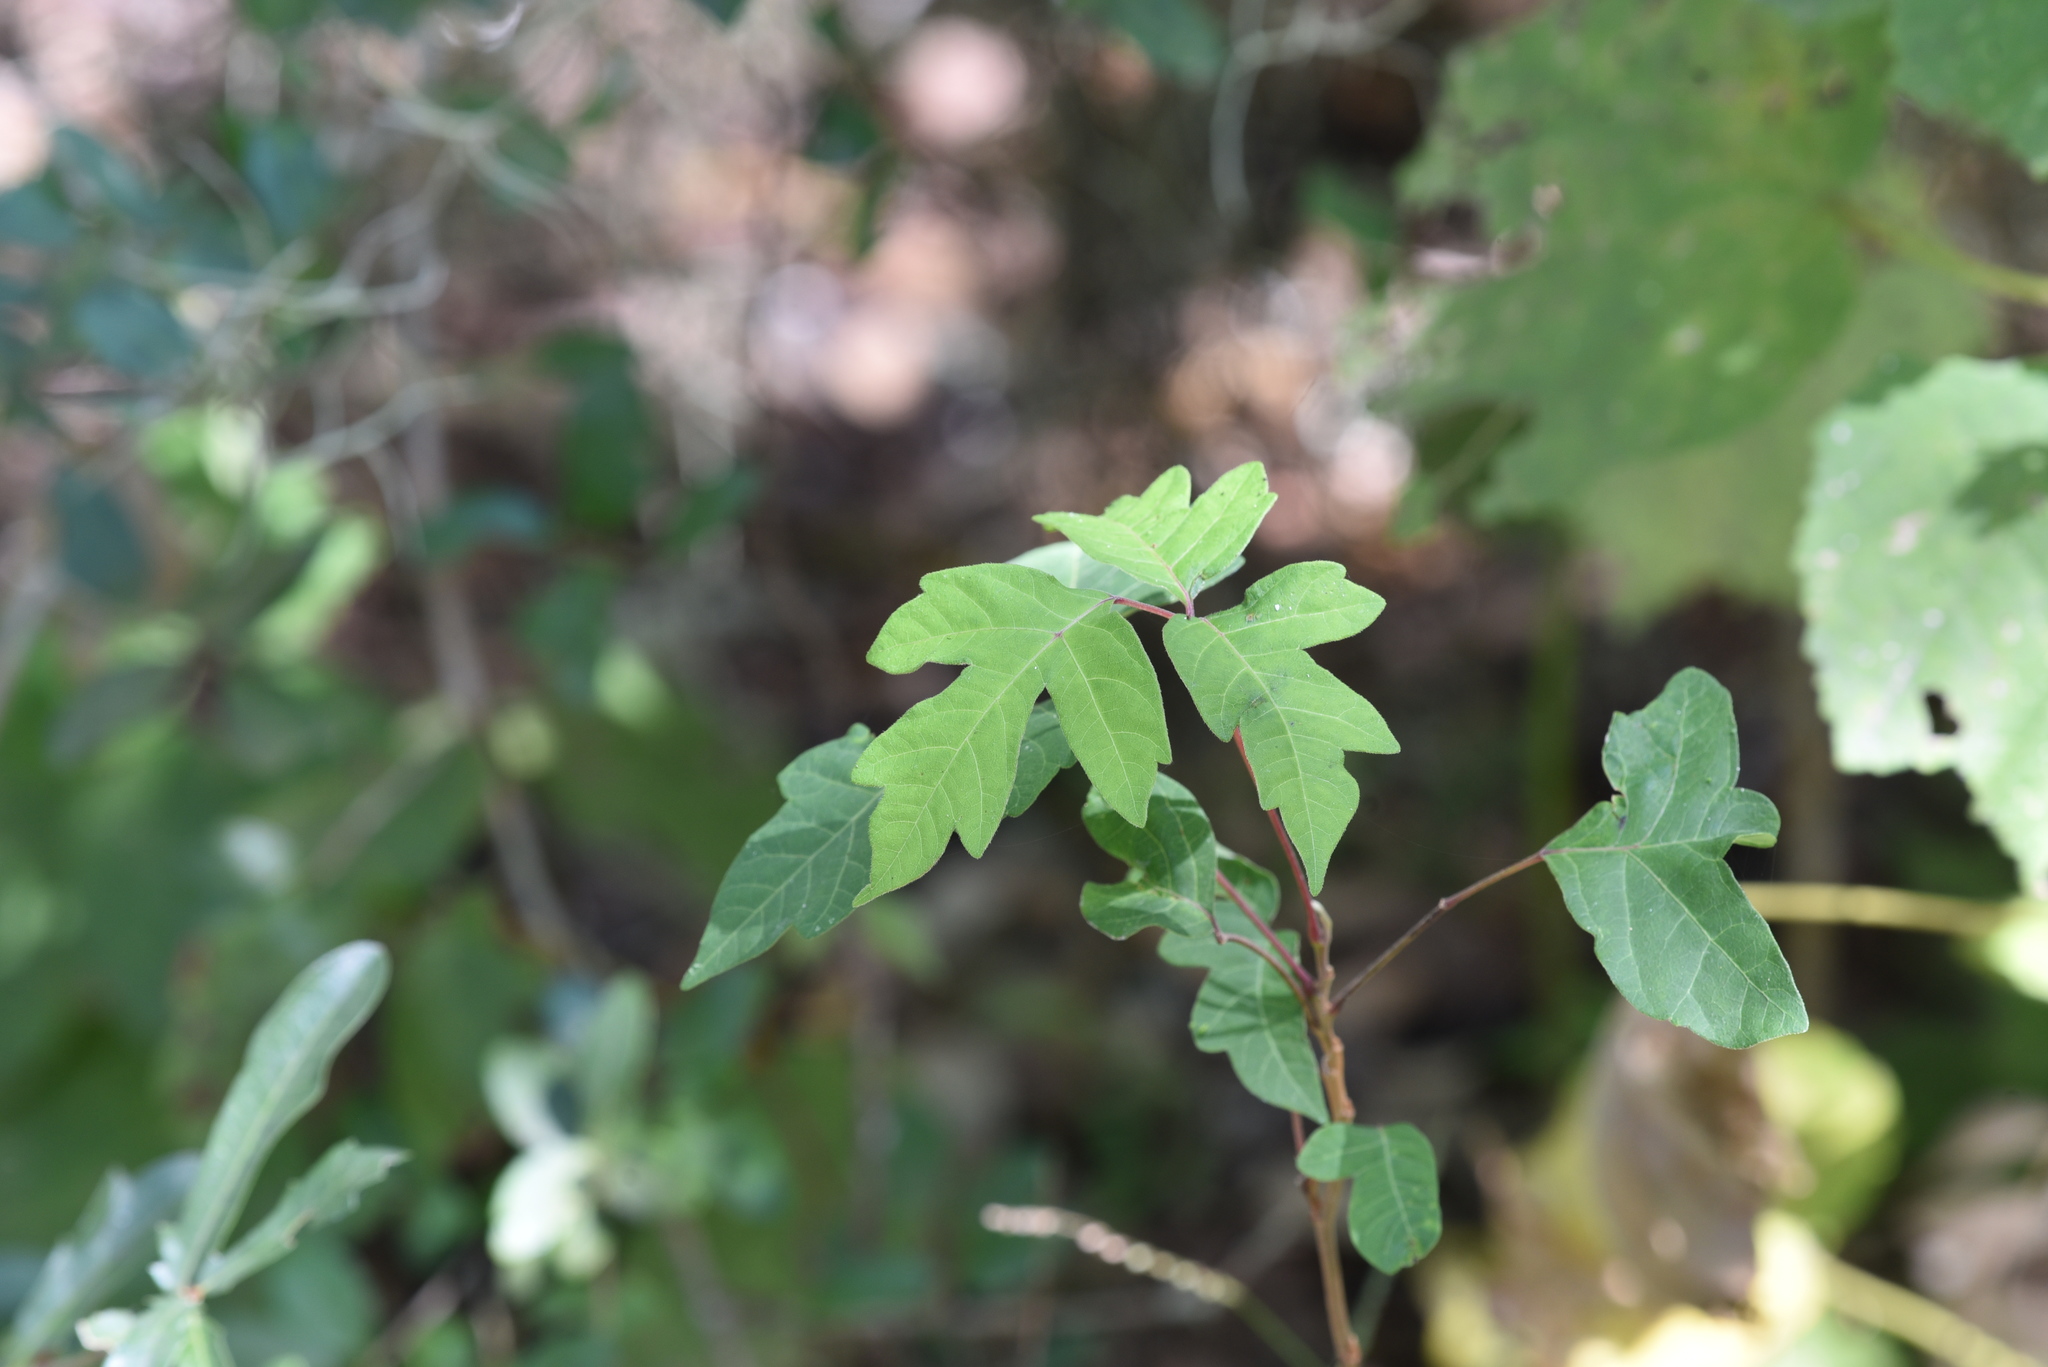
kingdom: Plantae
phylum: Tracheophyta
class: Magnoliopsida
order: Sapindales
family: Anacardiaceae
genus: Toxicodendron
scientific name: Toxicodendron radicans
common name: Poison ivy
